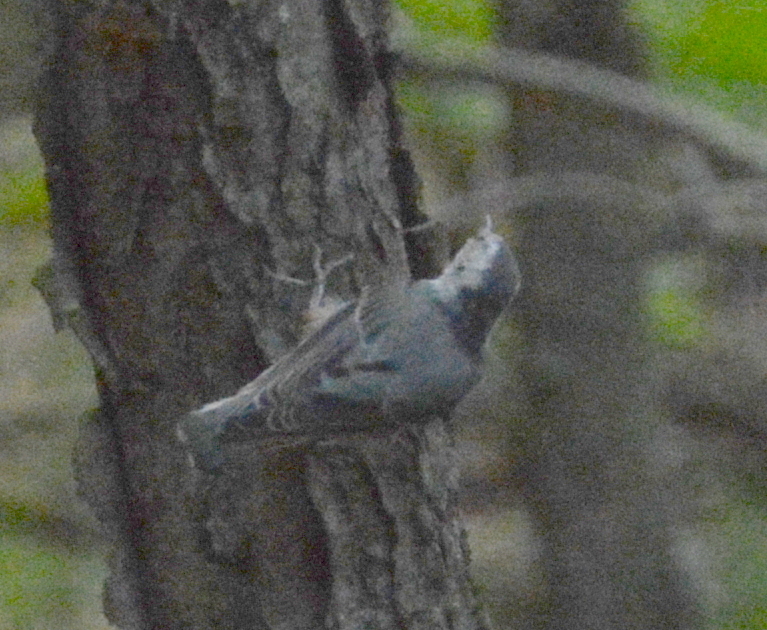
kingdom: Animalia
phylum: Chordata
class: Aves
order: Passeriformes
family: Sittidae
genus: Sitta
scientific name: Sitta carolinensis
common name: White-breasted nuthatch
